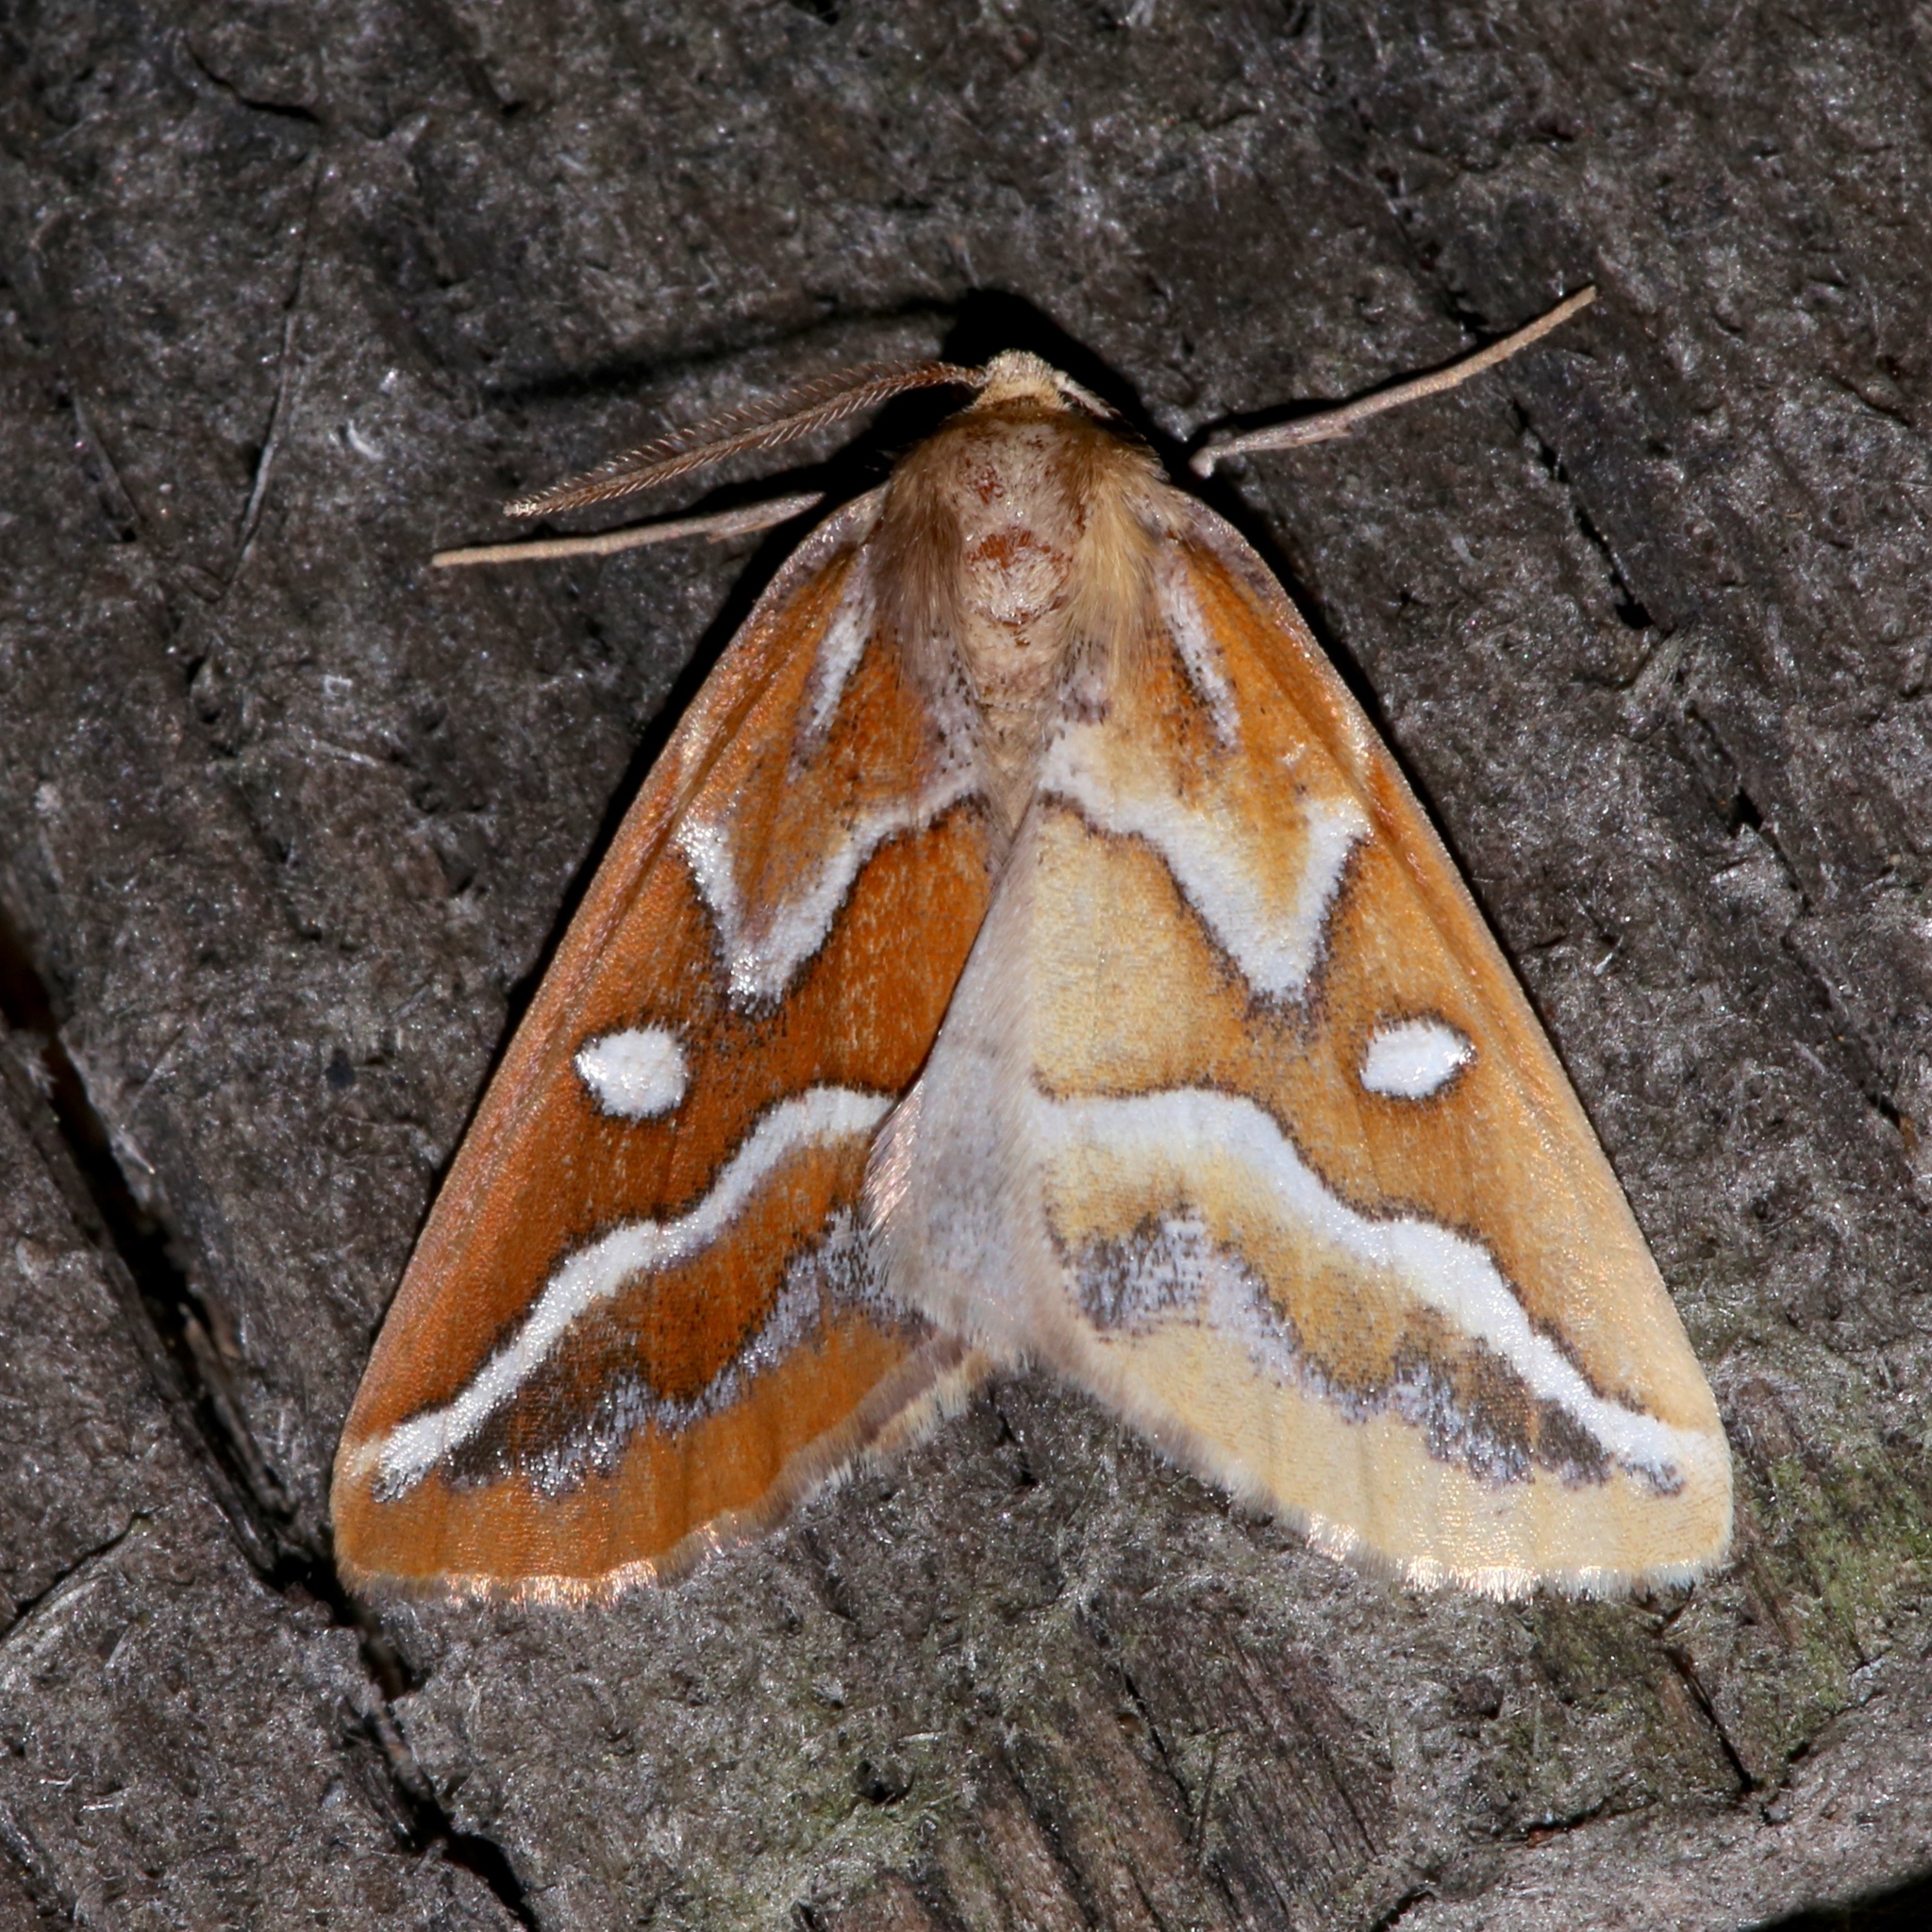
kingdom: Animalia
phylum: Arthropoda
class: Insecta
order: Lepidoptera
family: Geometridae
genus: Caripeta
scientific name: Caripeta angustiorata
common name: Brown pine looper
